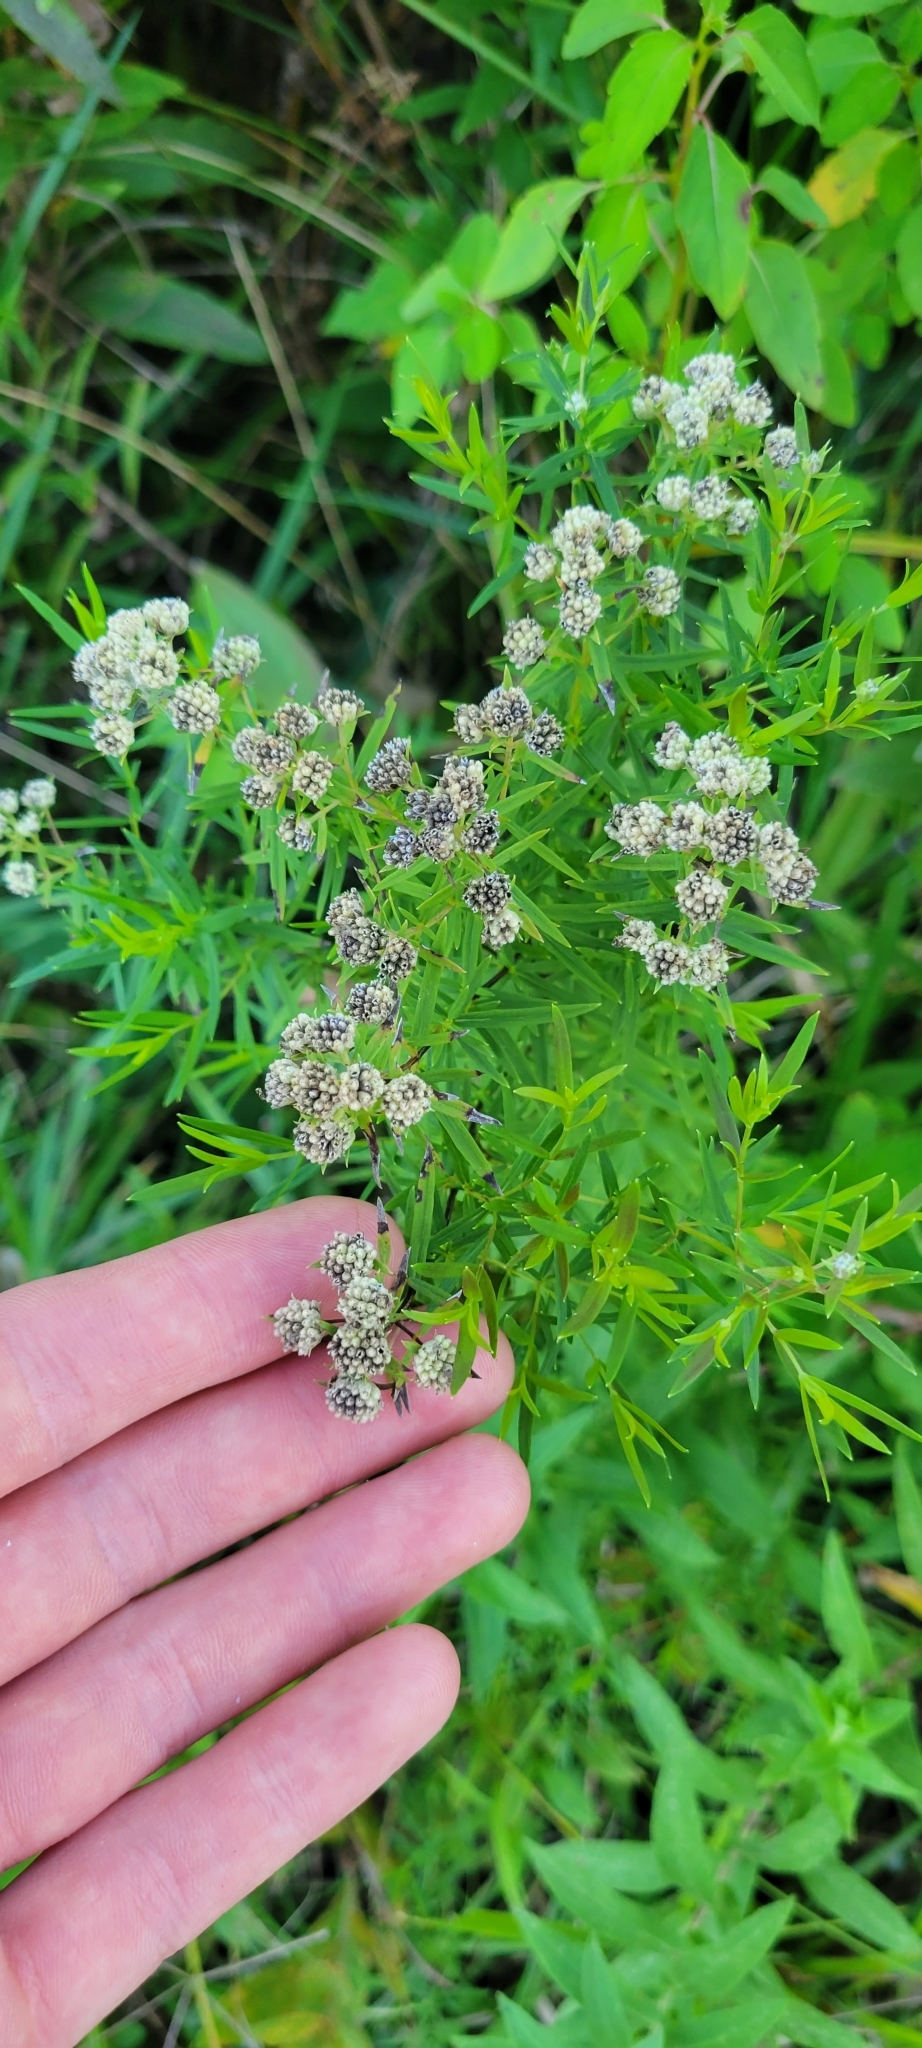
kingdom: Plantae
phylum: Tracheophyta
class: Magnoliopsida
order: Lamiales
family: Lamiaceae
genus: Pycnanthemum
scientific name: Pycnanthemum tenuifolium
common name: Narrow-leaf mountain-mint
